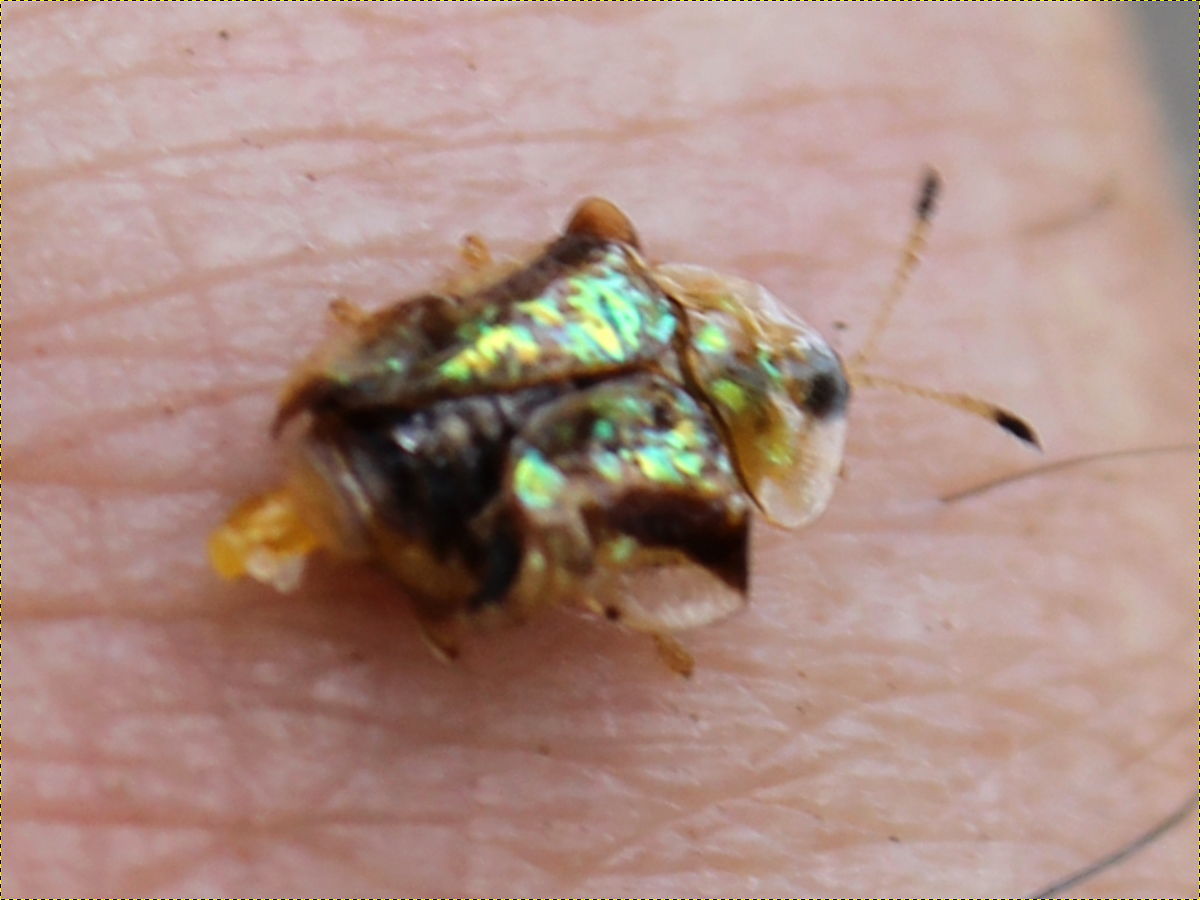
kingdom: Animalia
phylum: Arthropoda
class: Insecta
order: Coleoptera
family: Chrysomelidae
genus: Deloyala
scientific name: Deloyala guttata
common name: Mottled tortoise beetle
